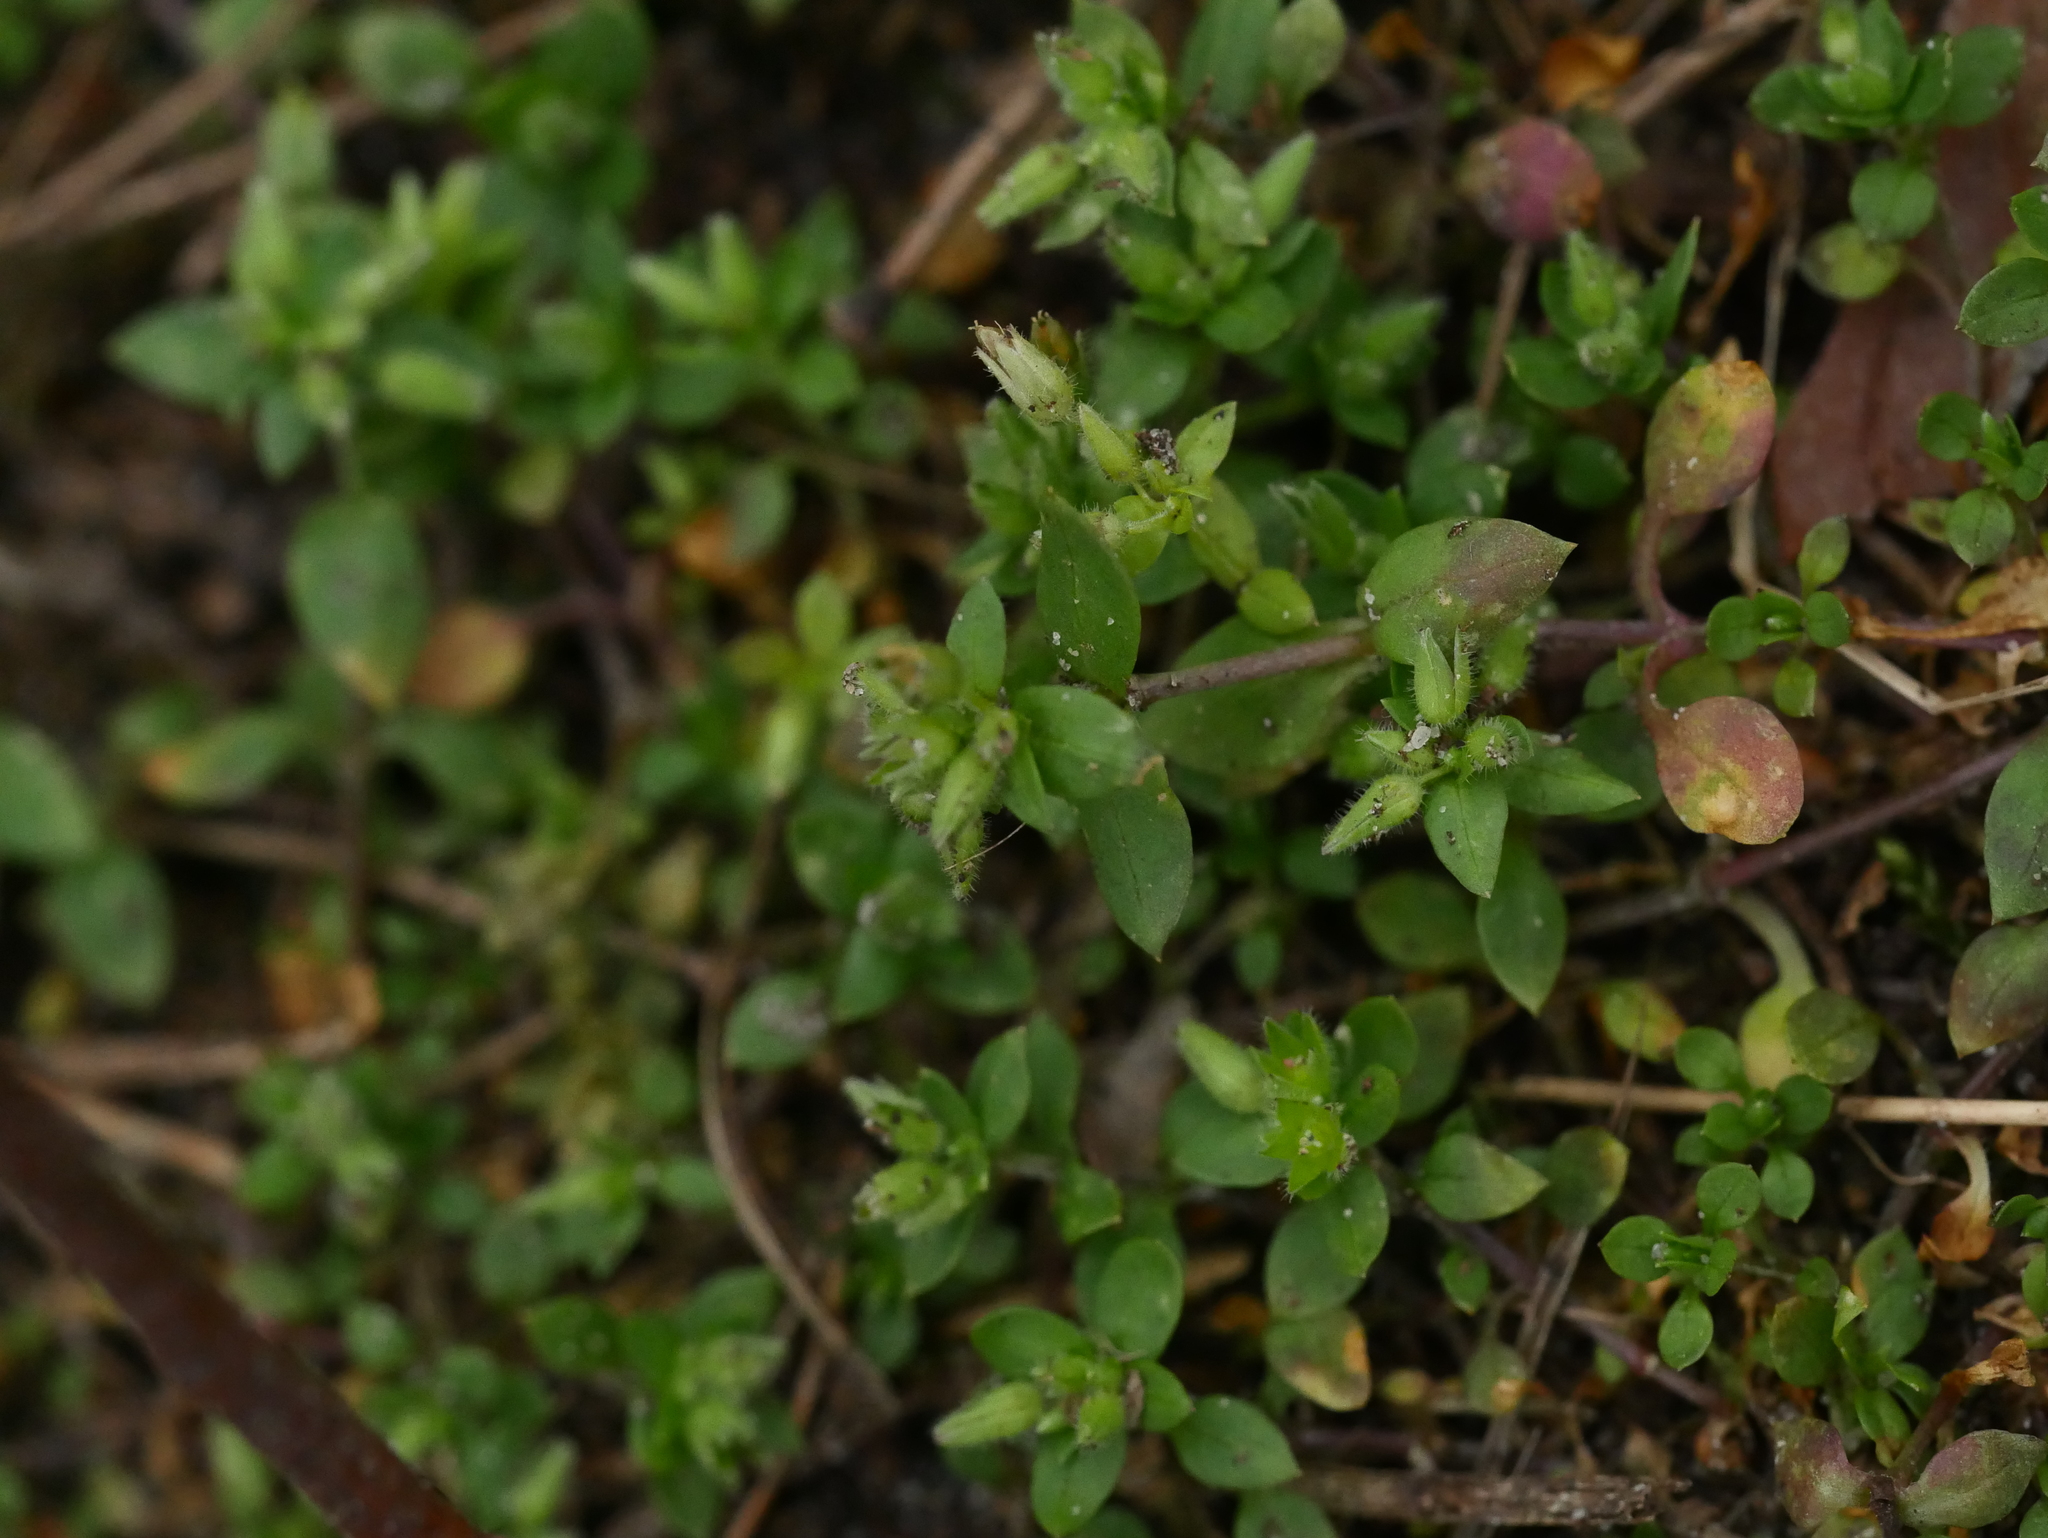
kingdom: Plantae
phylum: Tracheophyta
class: Magnoliopsida
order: Caryophyllales
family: Caryophyllaceae
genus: Stellaria
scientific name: Stellaria media
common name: Common chickweed
